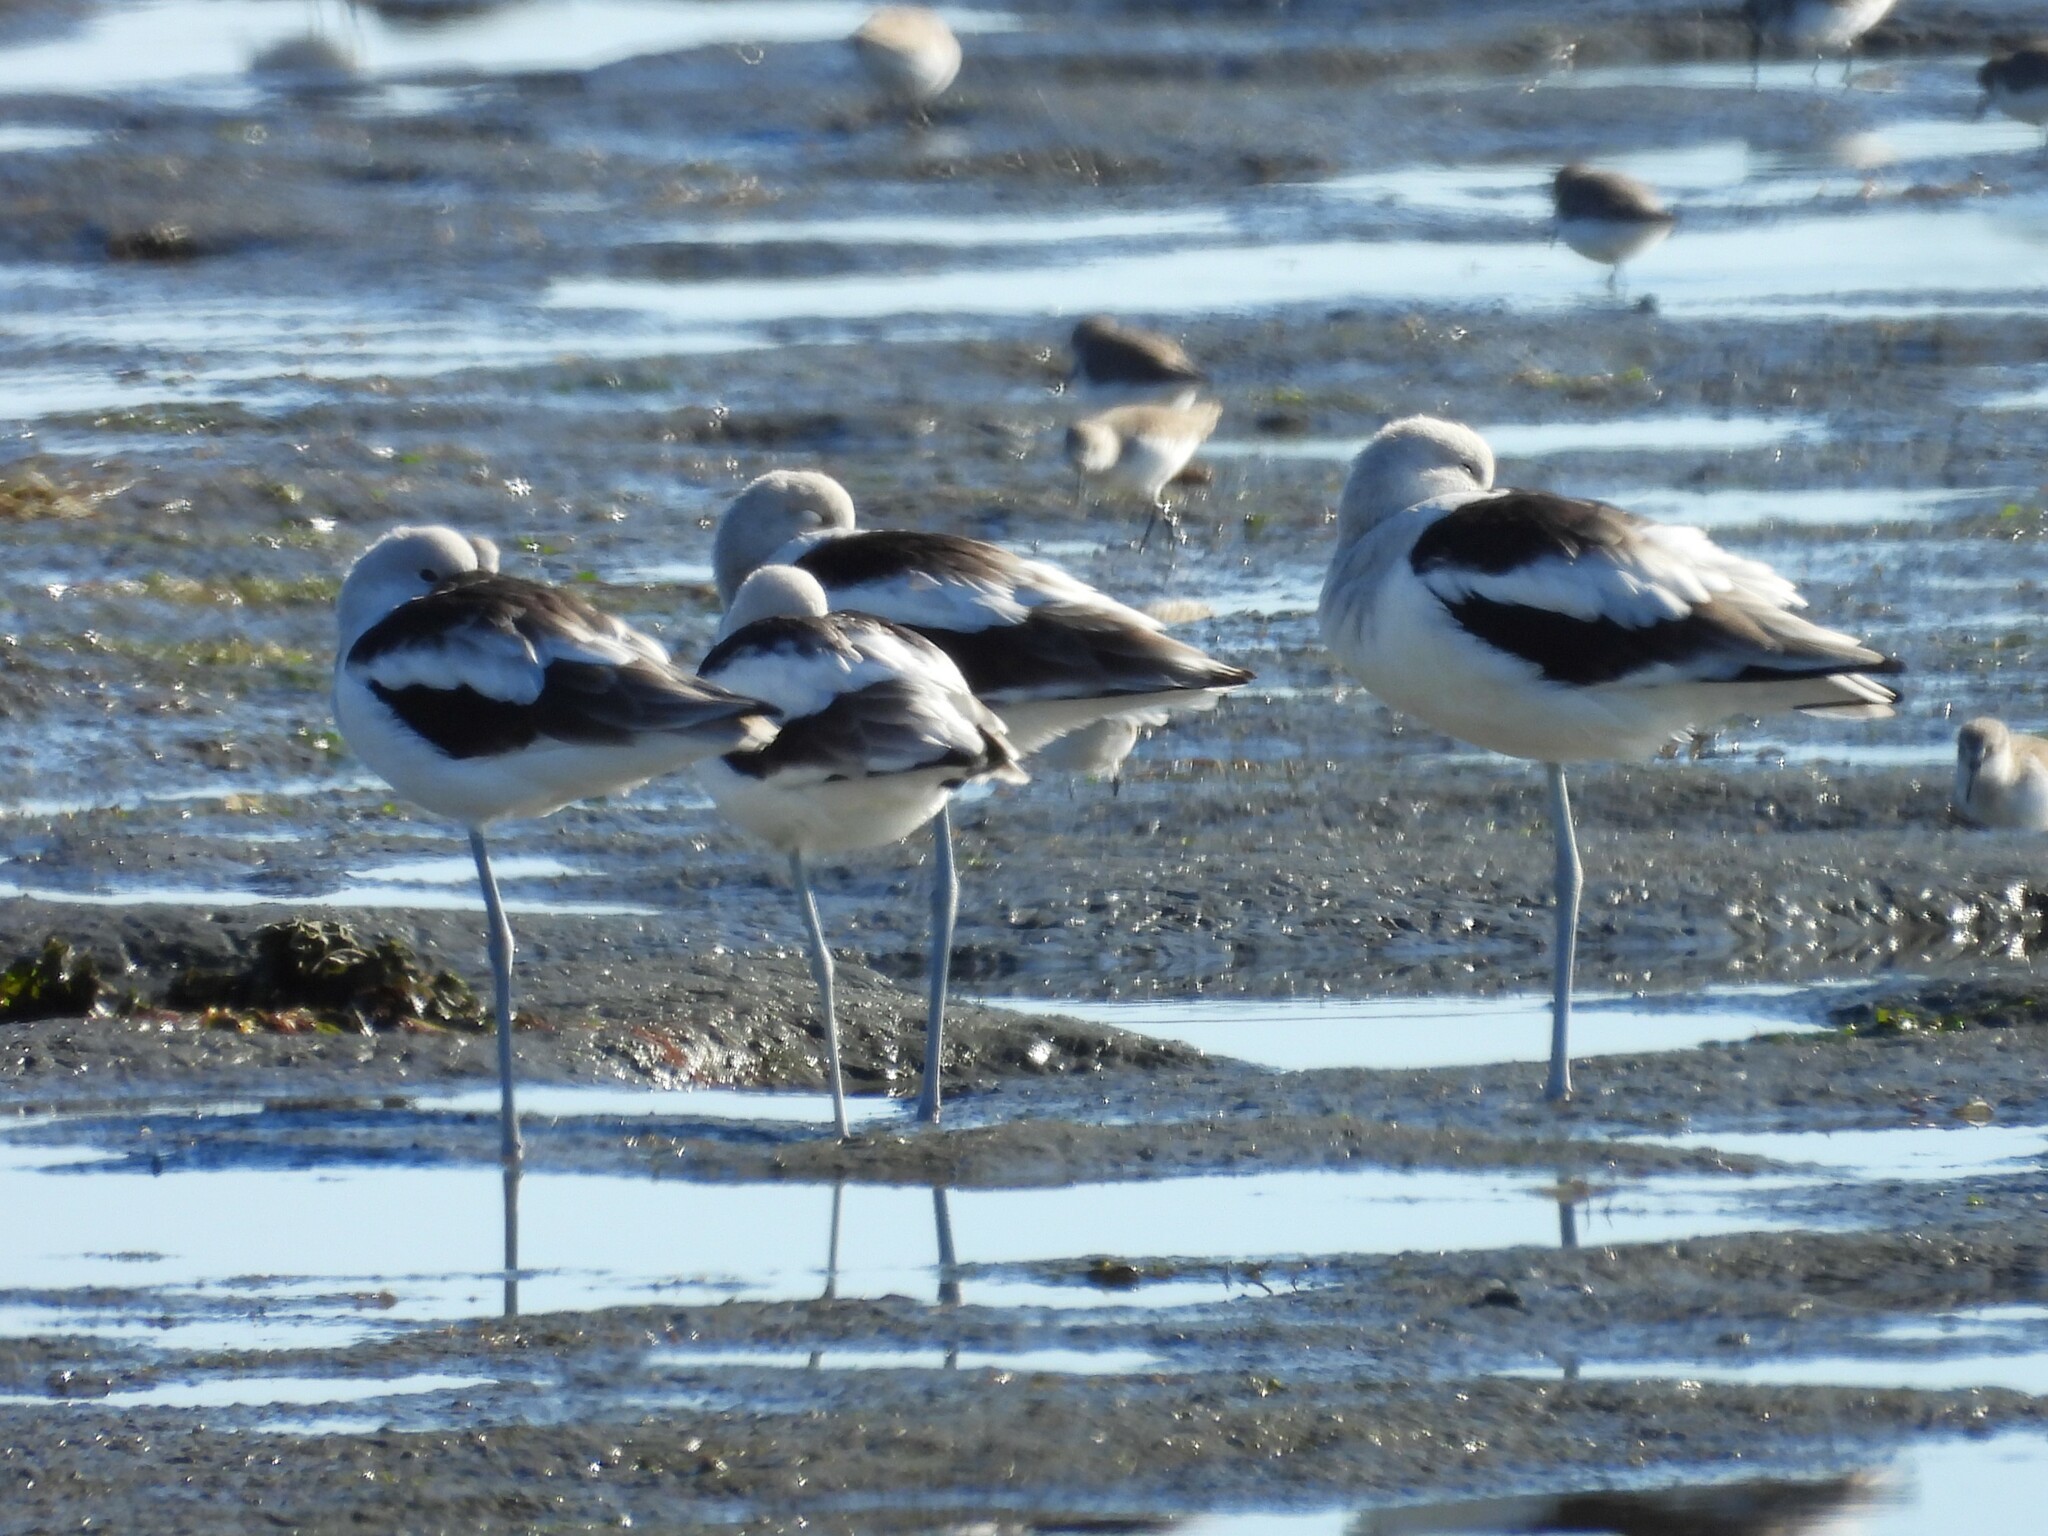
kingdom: Animalia
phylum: Chordata
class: Aves
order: Charadriiformes
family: Recurvirostridae
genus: Recurvirostra
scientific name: Recurvirostra americana
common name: American avocet
